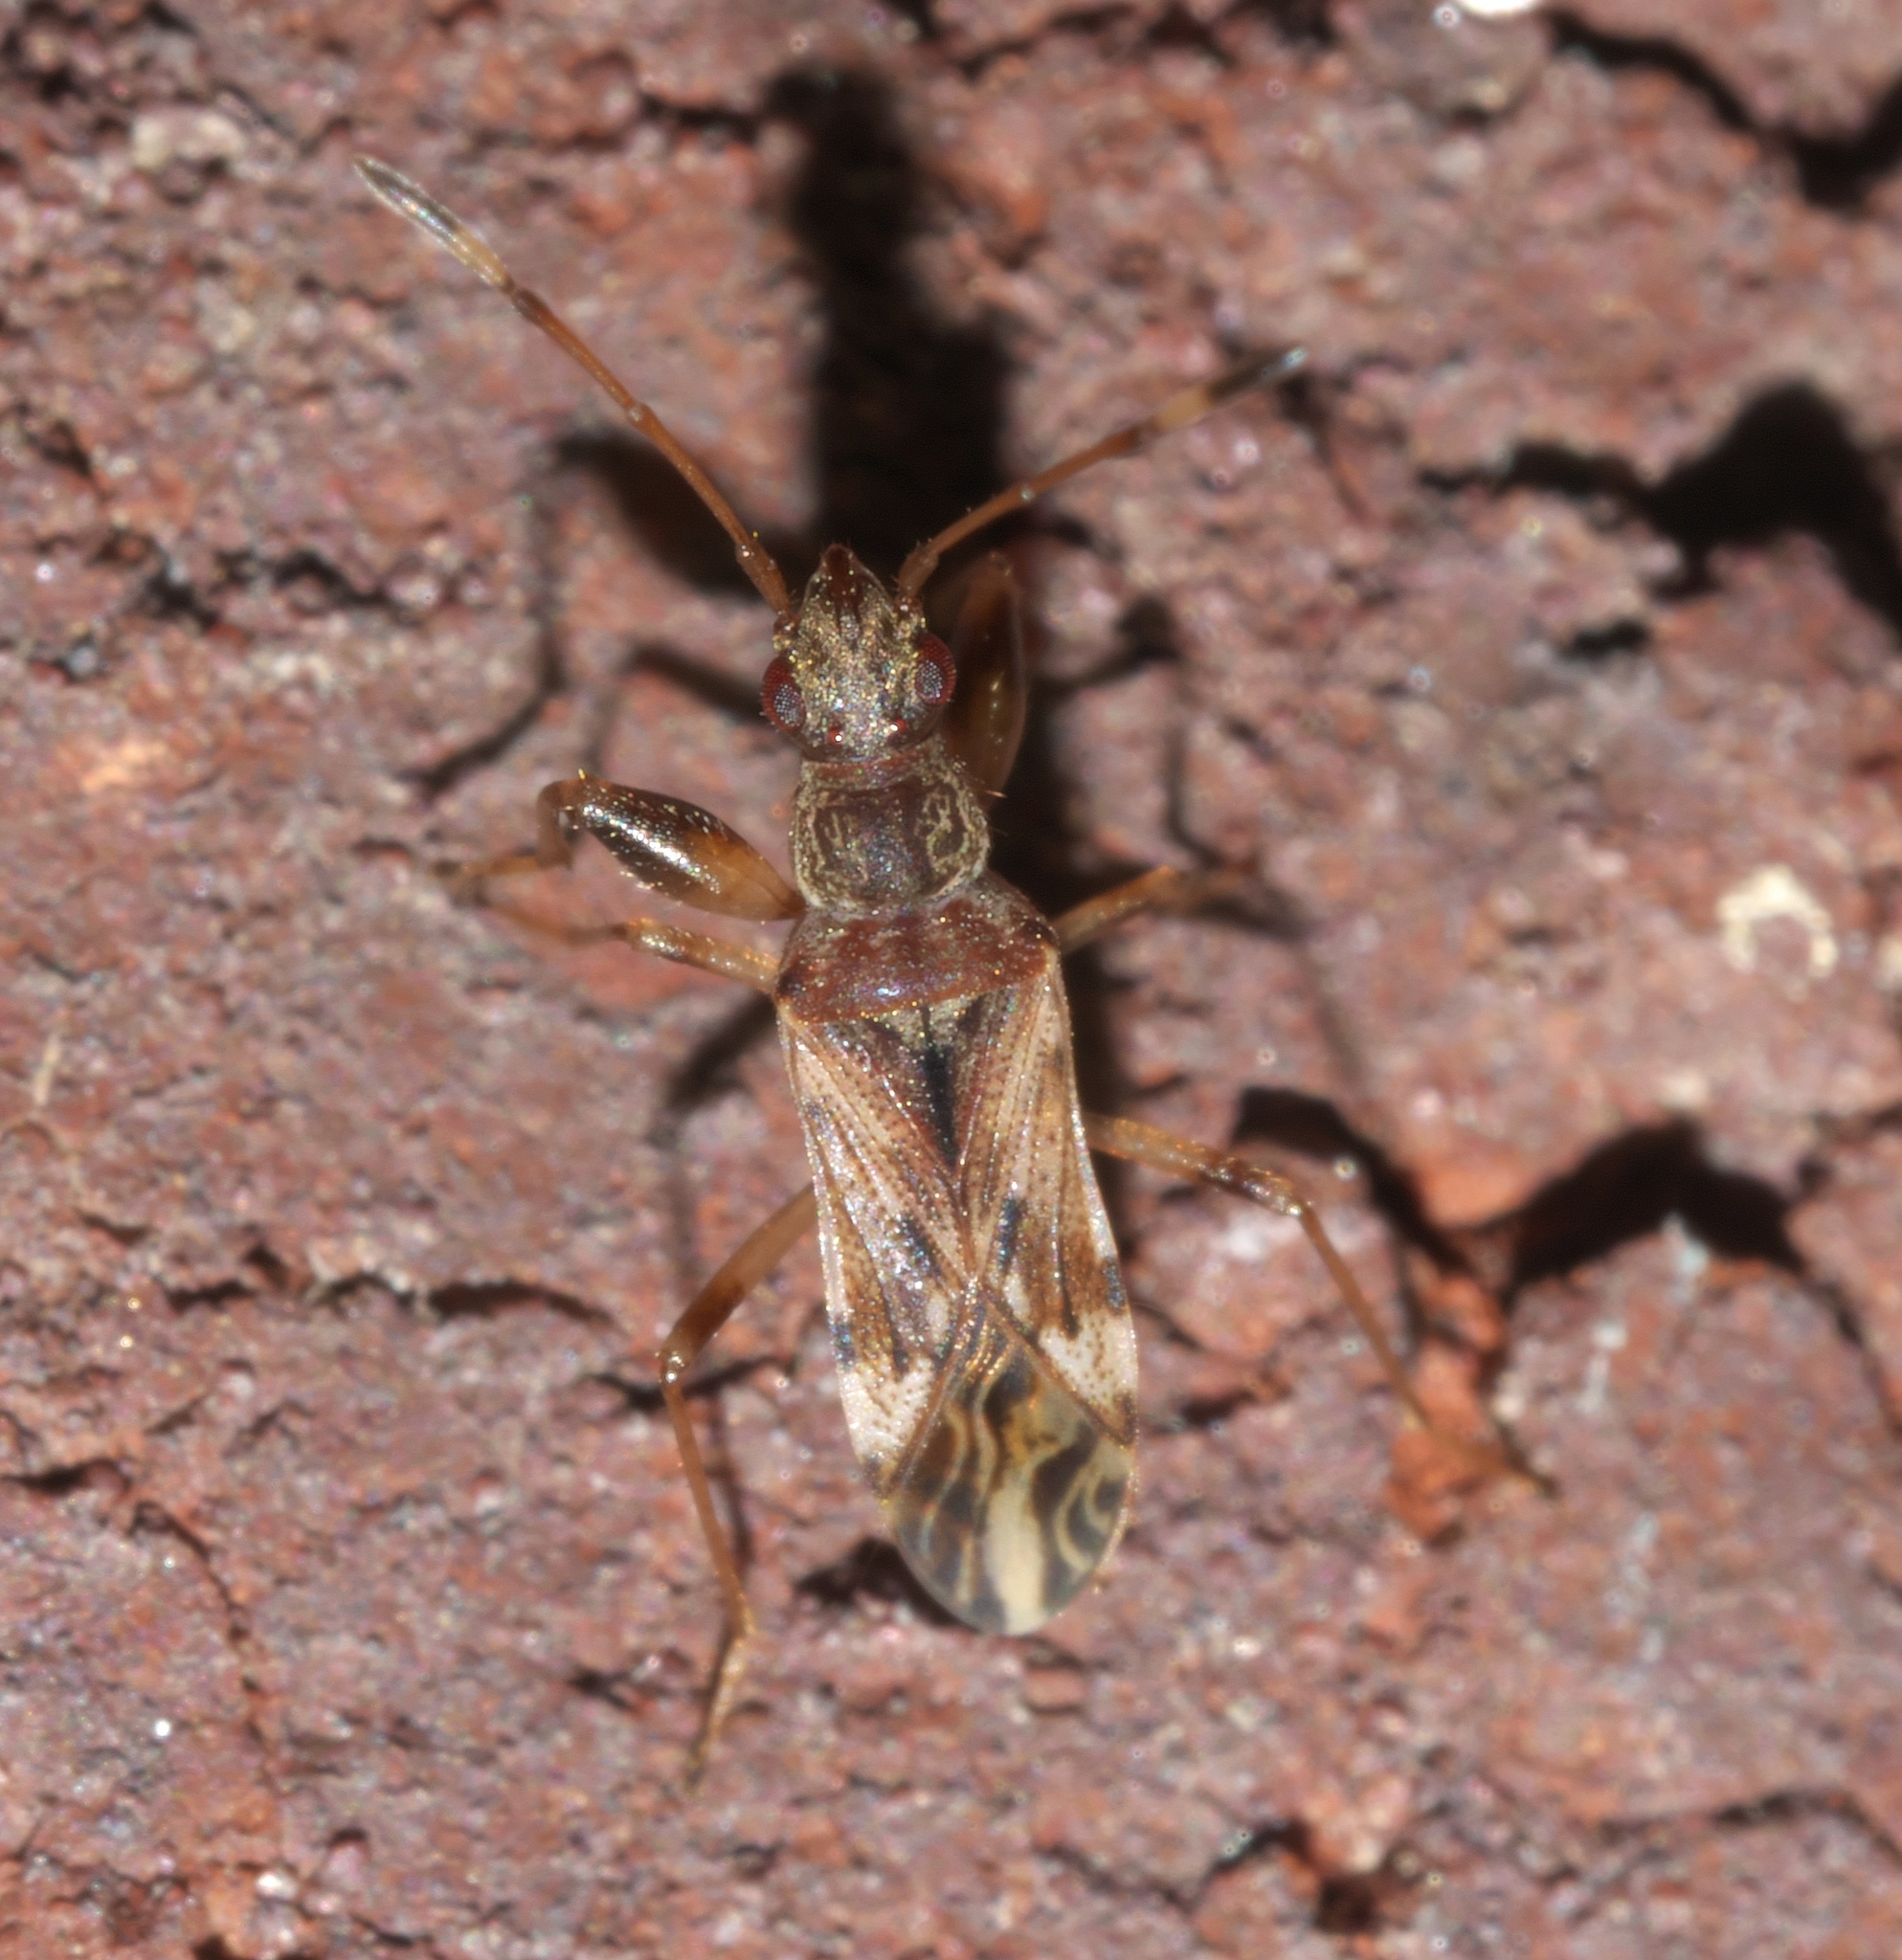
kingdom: Animalia
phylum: Arthropoda
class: Insecta
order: Hemiptera
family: Rhyparochromidae
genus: Neopamera
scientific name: Neopamera albocincta
